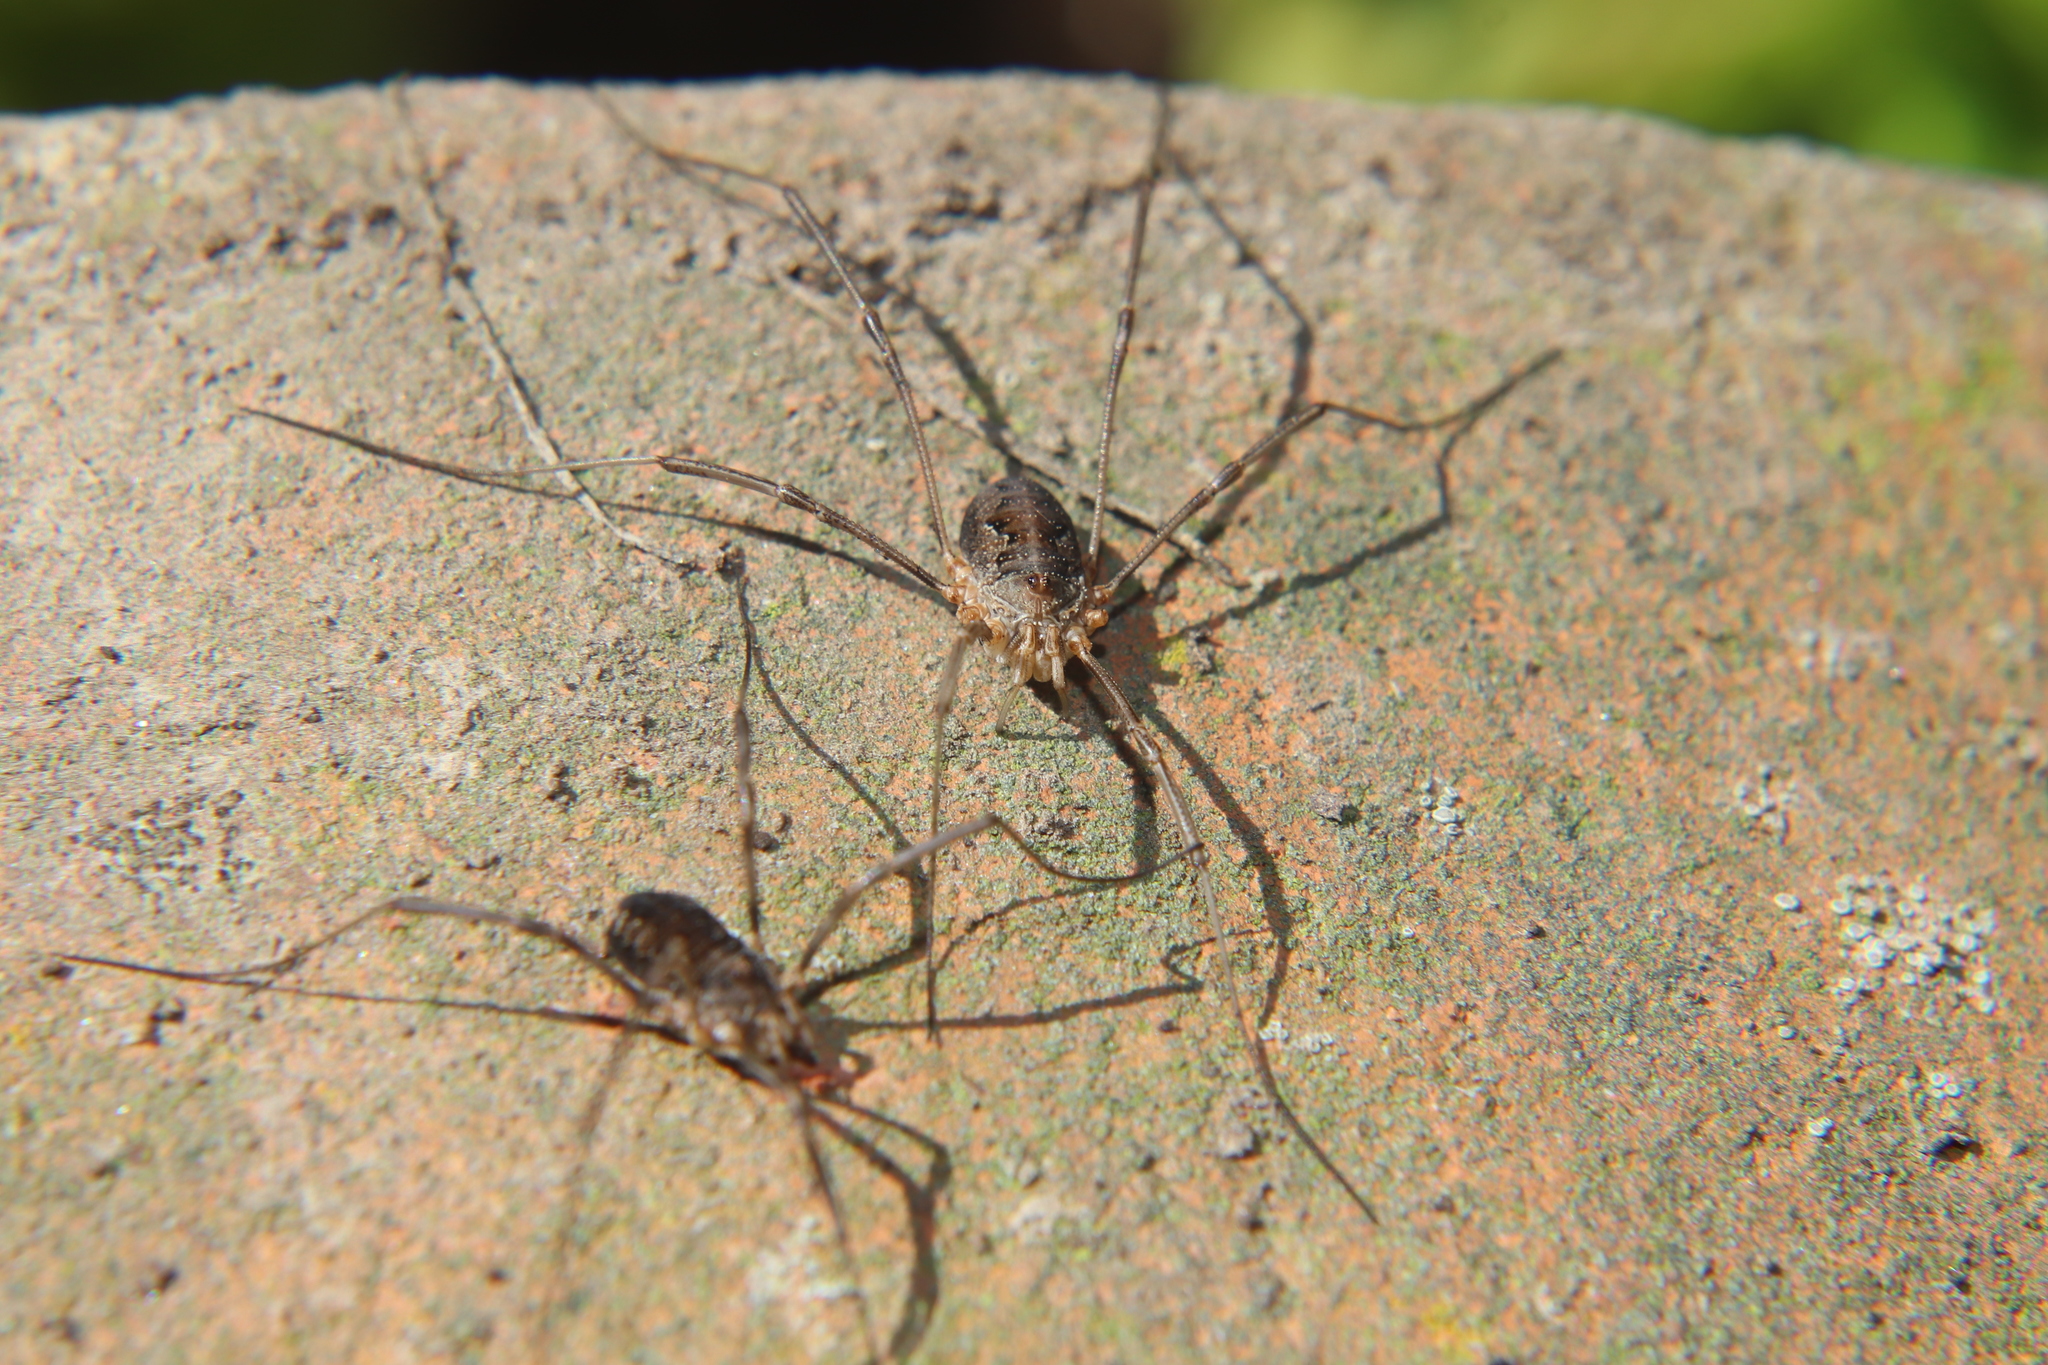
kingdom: Animalia
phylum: Arthropoda
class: Arachnida
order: Opiliones
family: Phalangiidae
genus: Phalangium
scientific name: Phalangium opilio
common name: Daddy longleg
